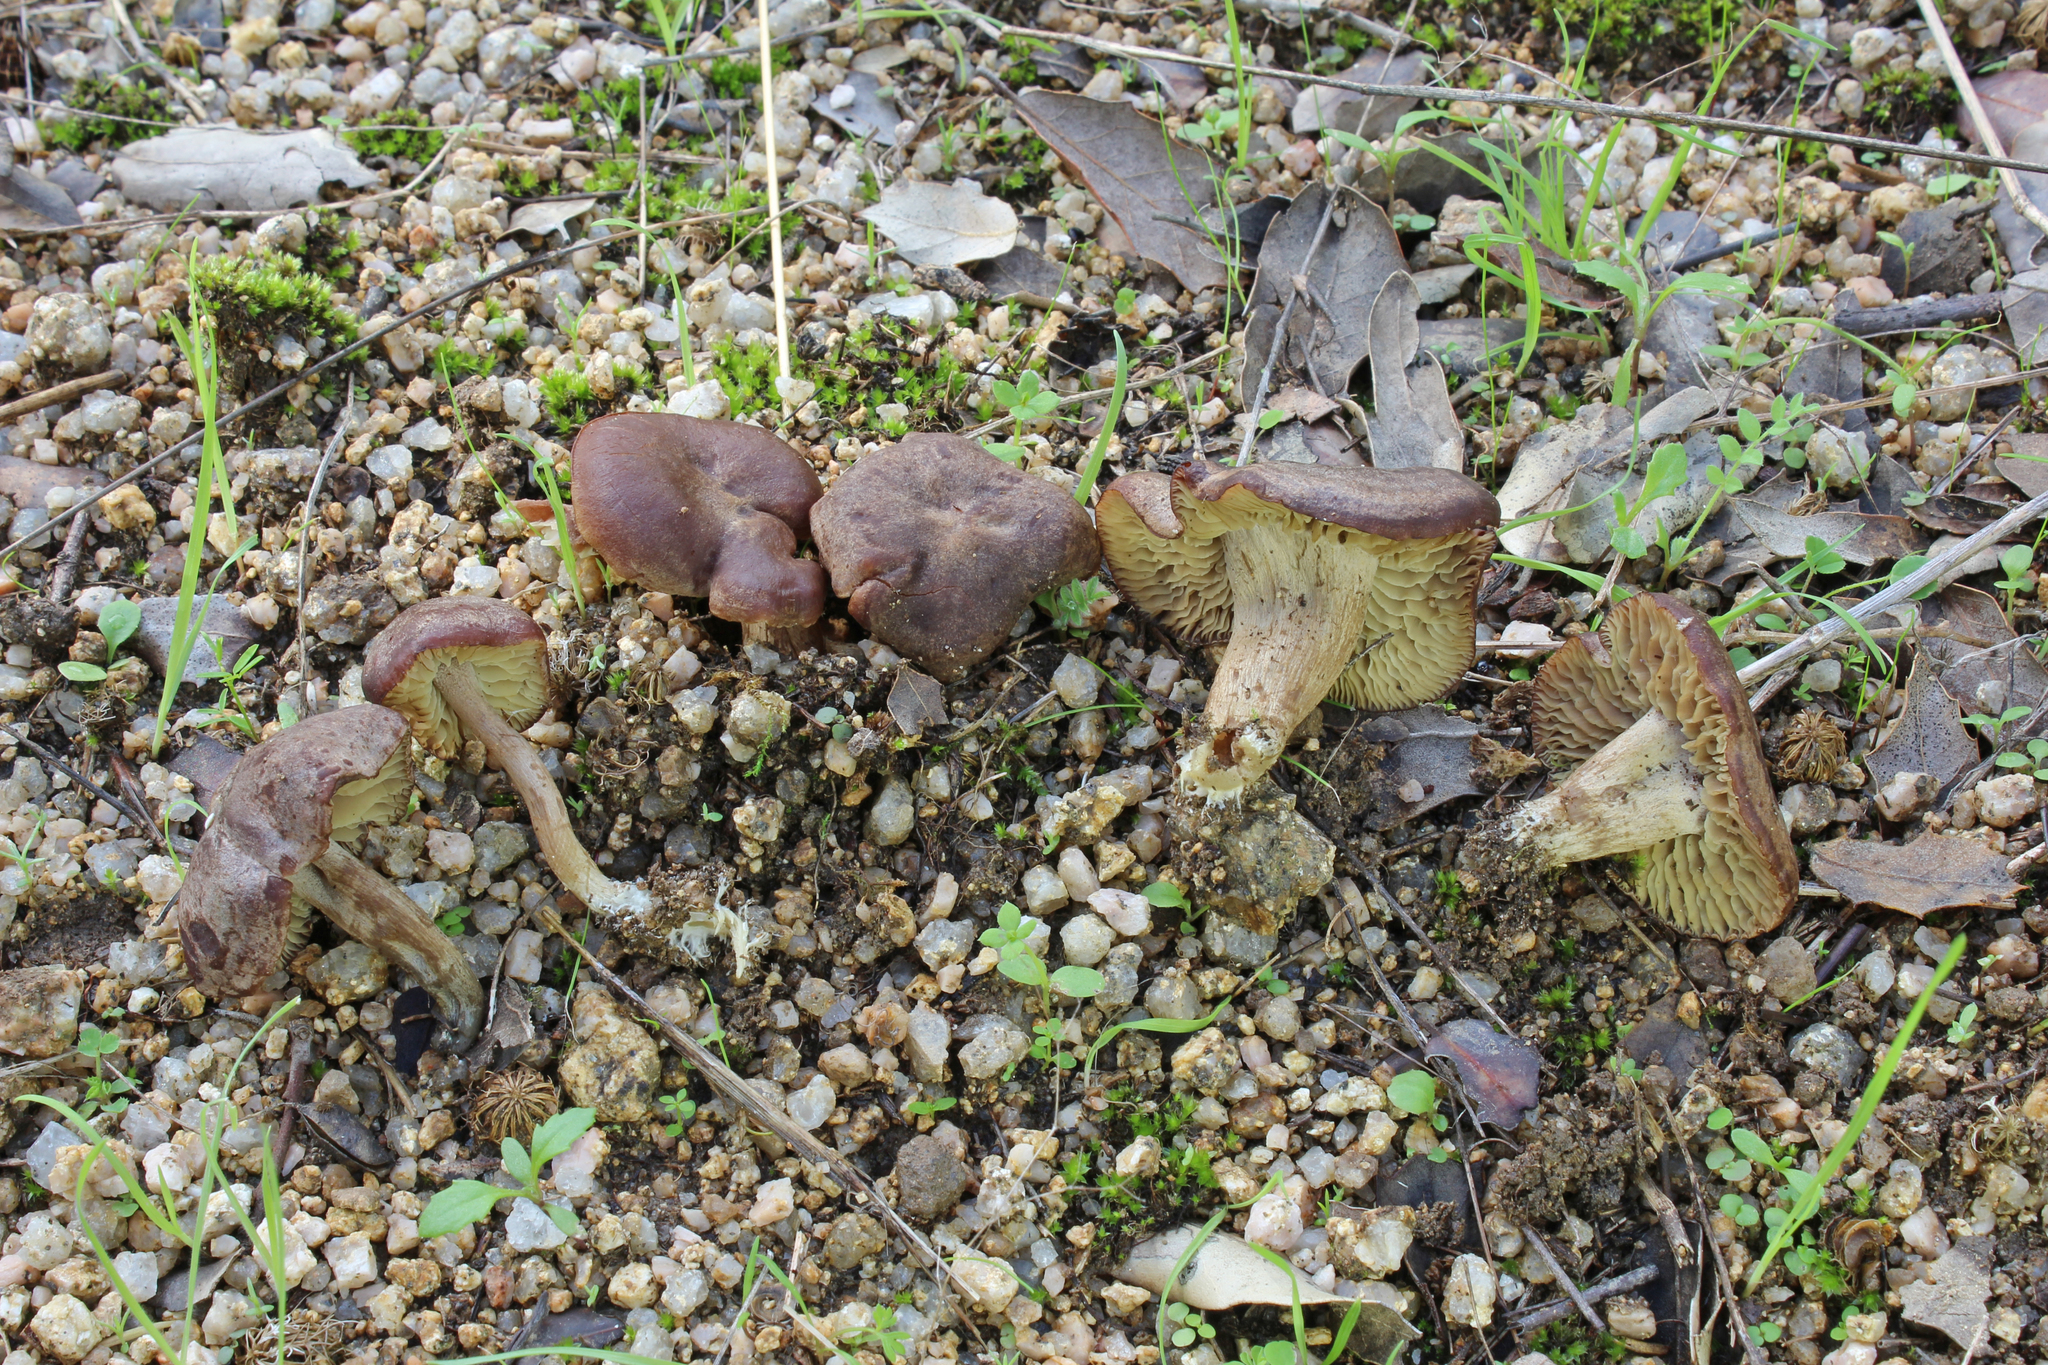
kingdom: Fungi
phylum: Basidiomycota
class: Agaricomycetes
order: Agaricales
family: Callistosporiaceae
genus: Xerophorus
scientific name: Xerophorus olivascens
